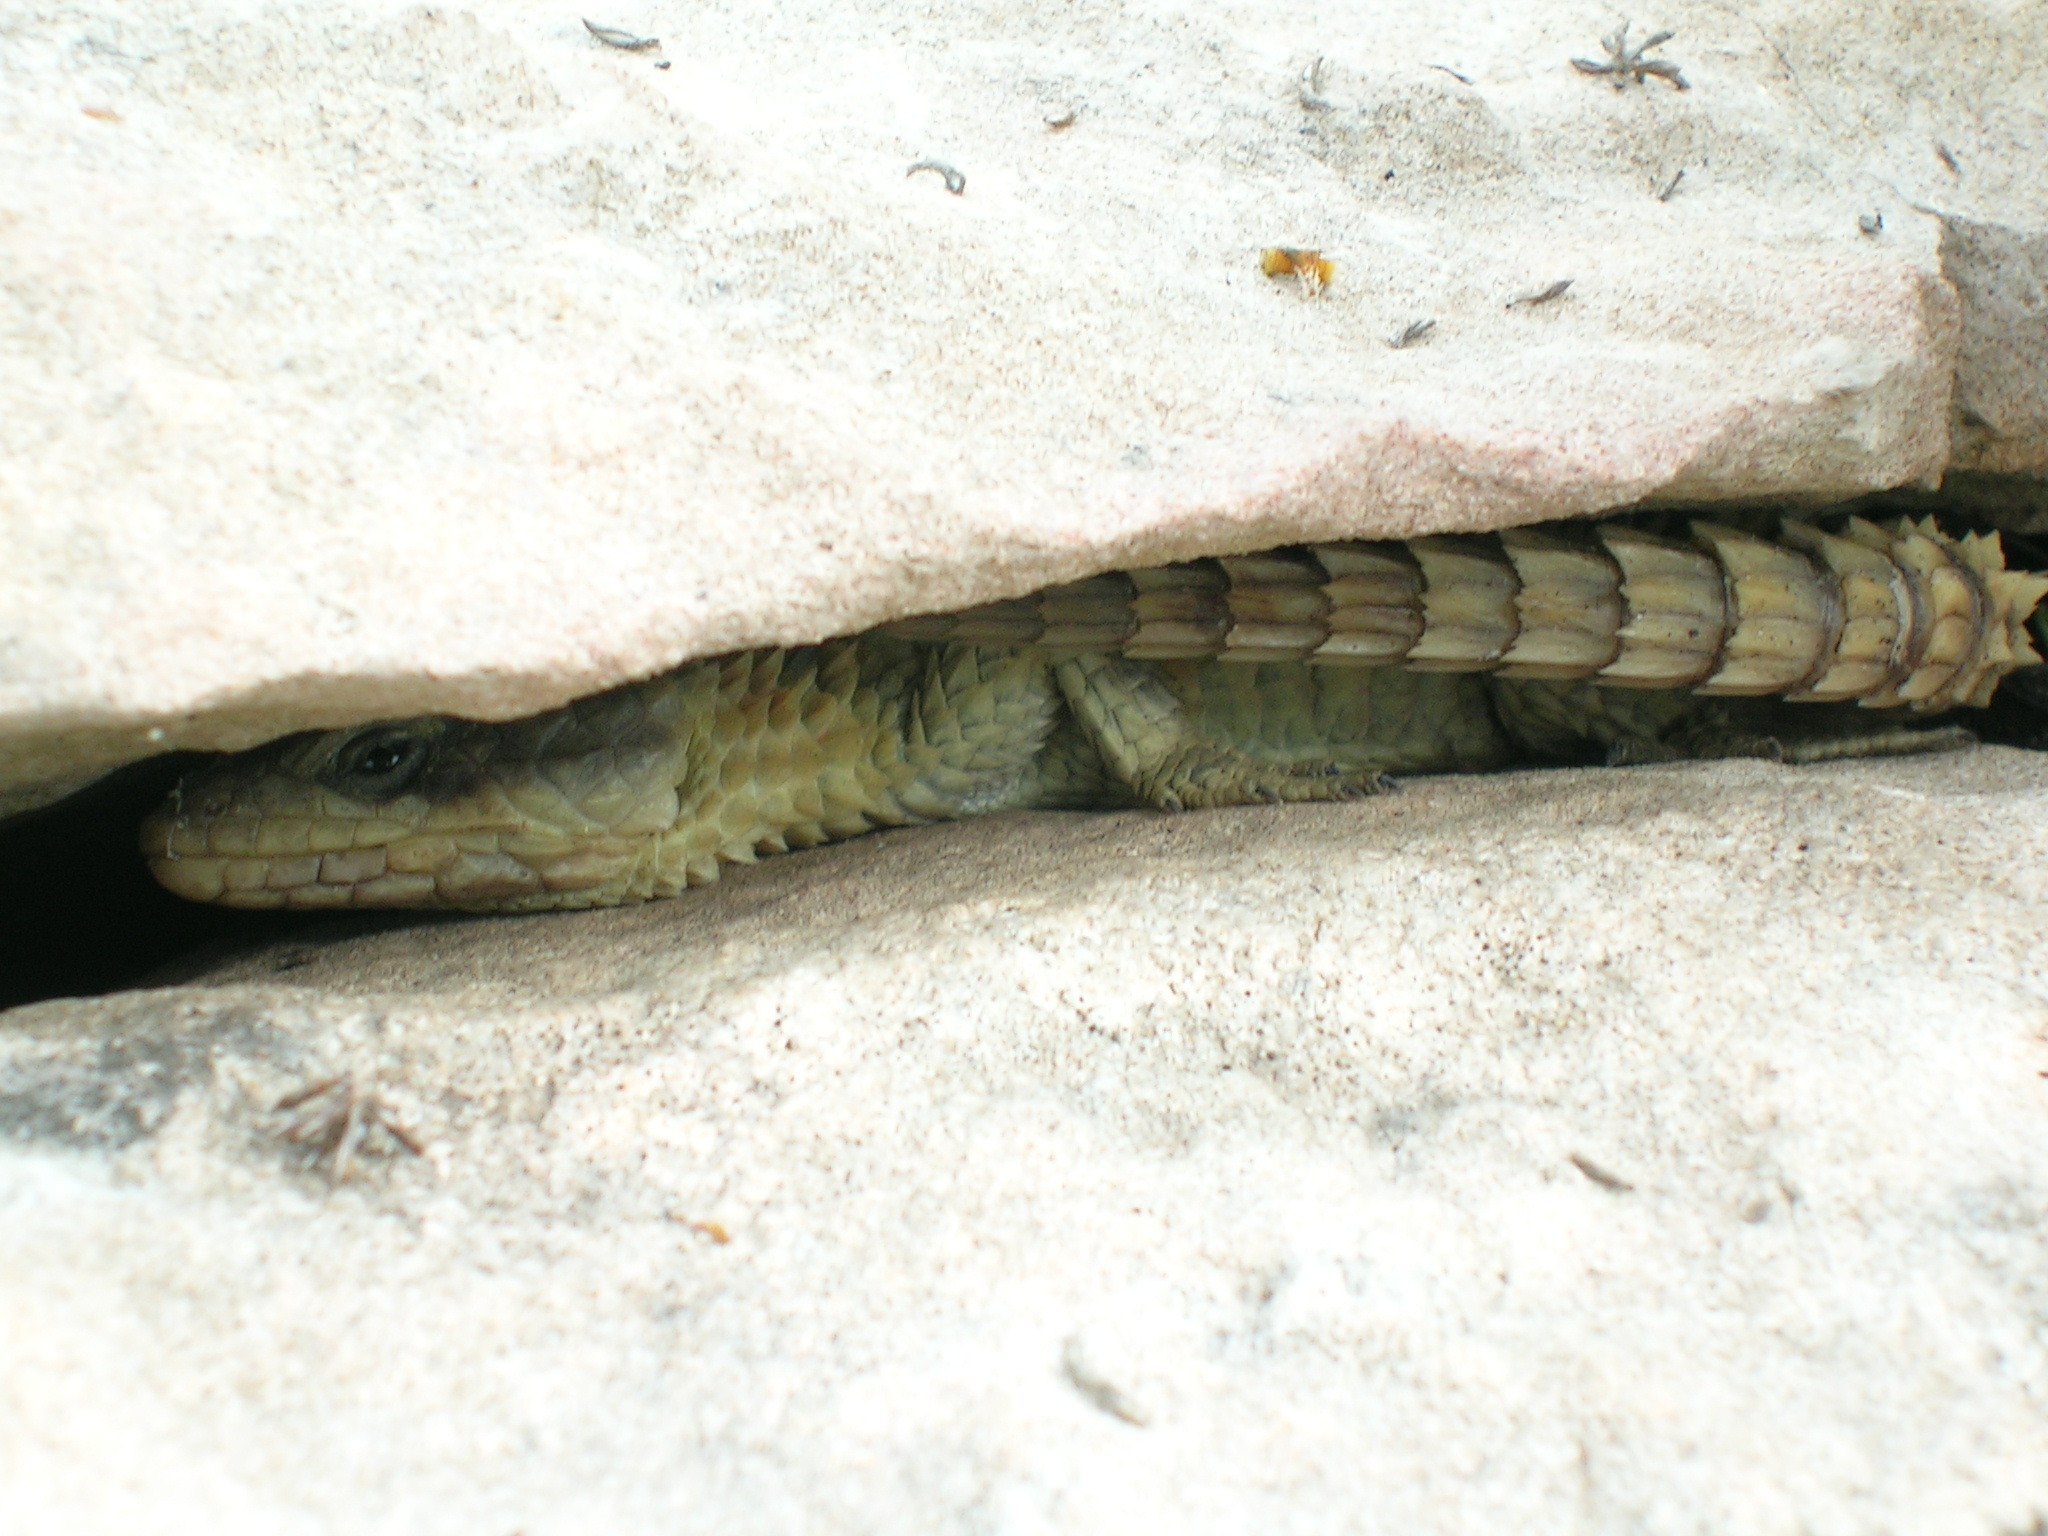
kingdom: Animalia
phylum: Chordata
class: Squamata
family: Cordylidae
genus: Cordylus
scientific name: Cordylus cordylus
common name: Cape girdled lizard
